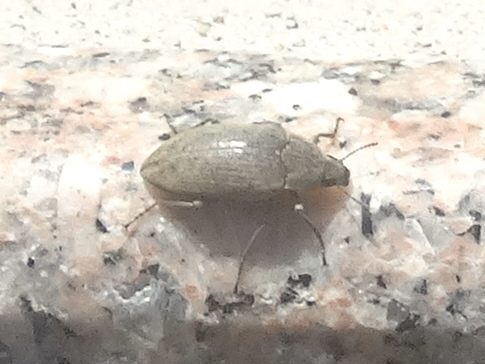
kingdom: Animalia
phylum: Arthropoda
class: Insecta
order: Coleoptera
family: Tenebrionidae
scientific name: Tenebrionidae
